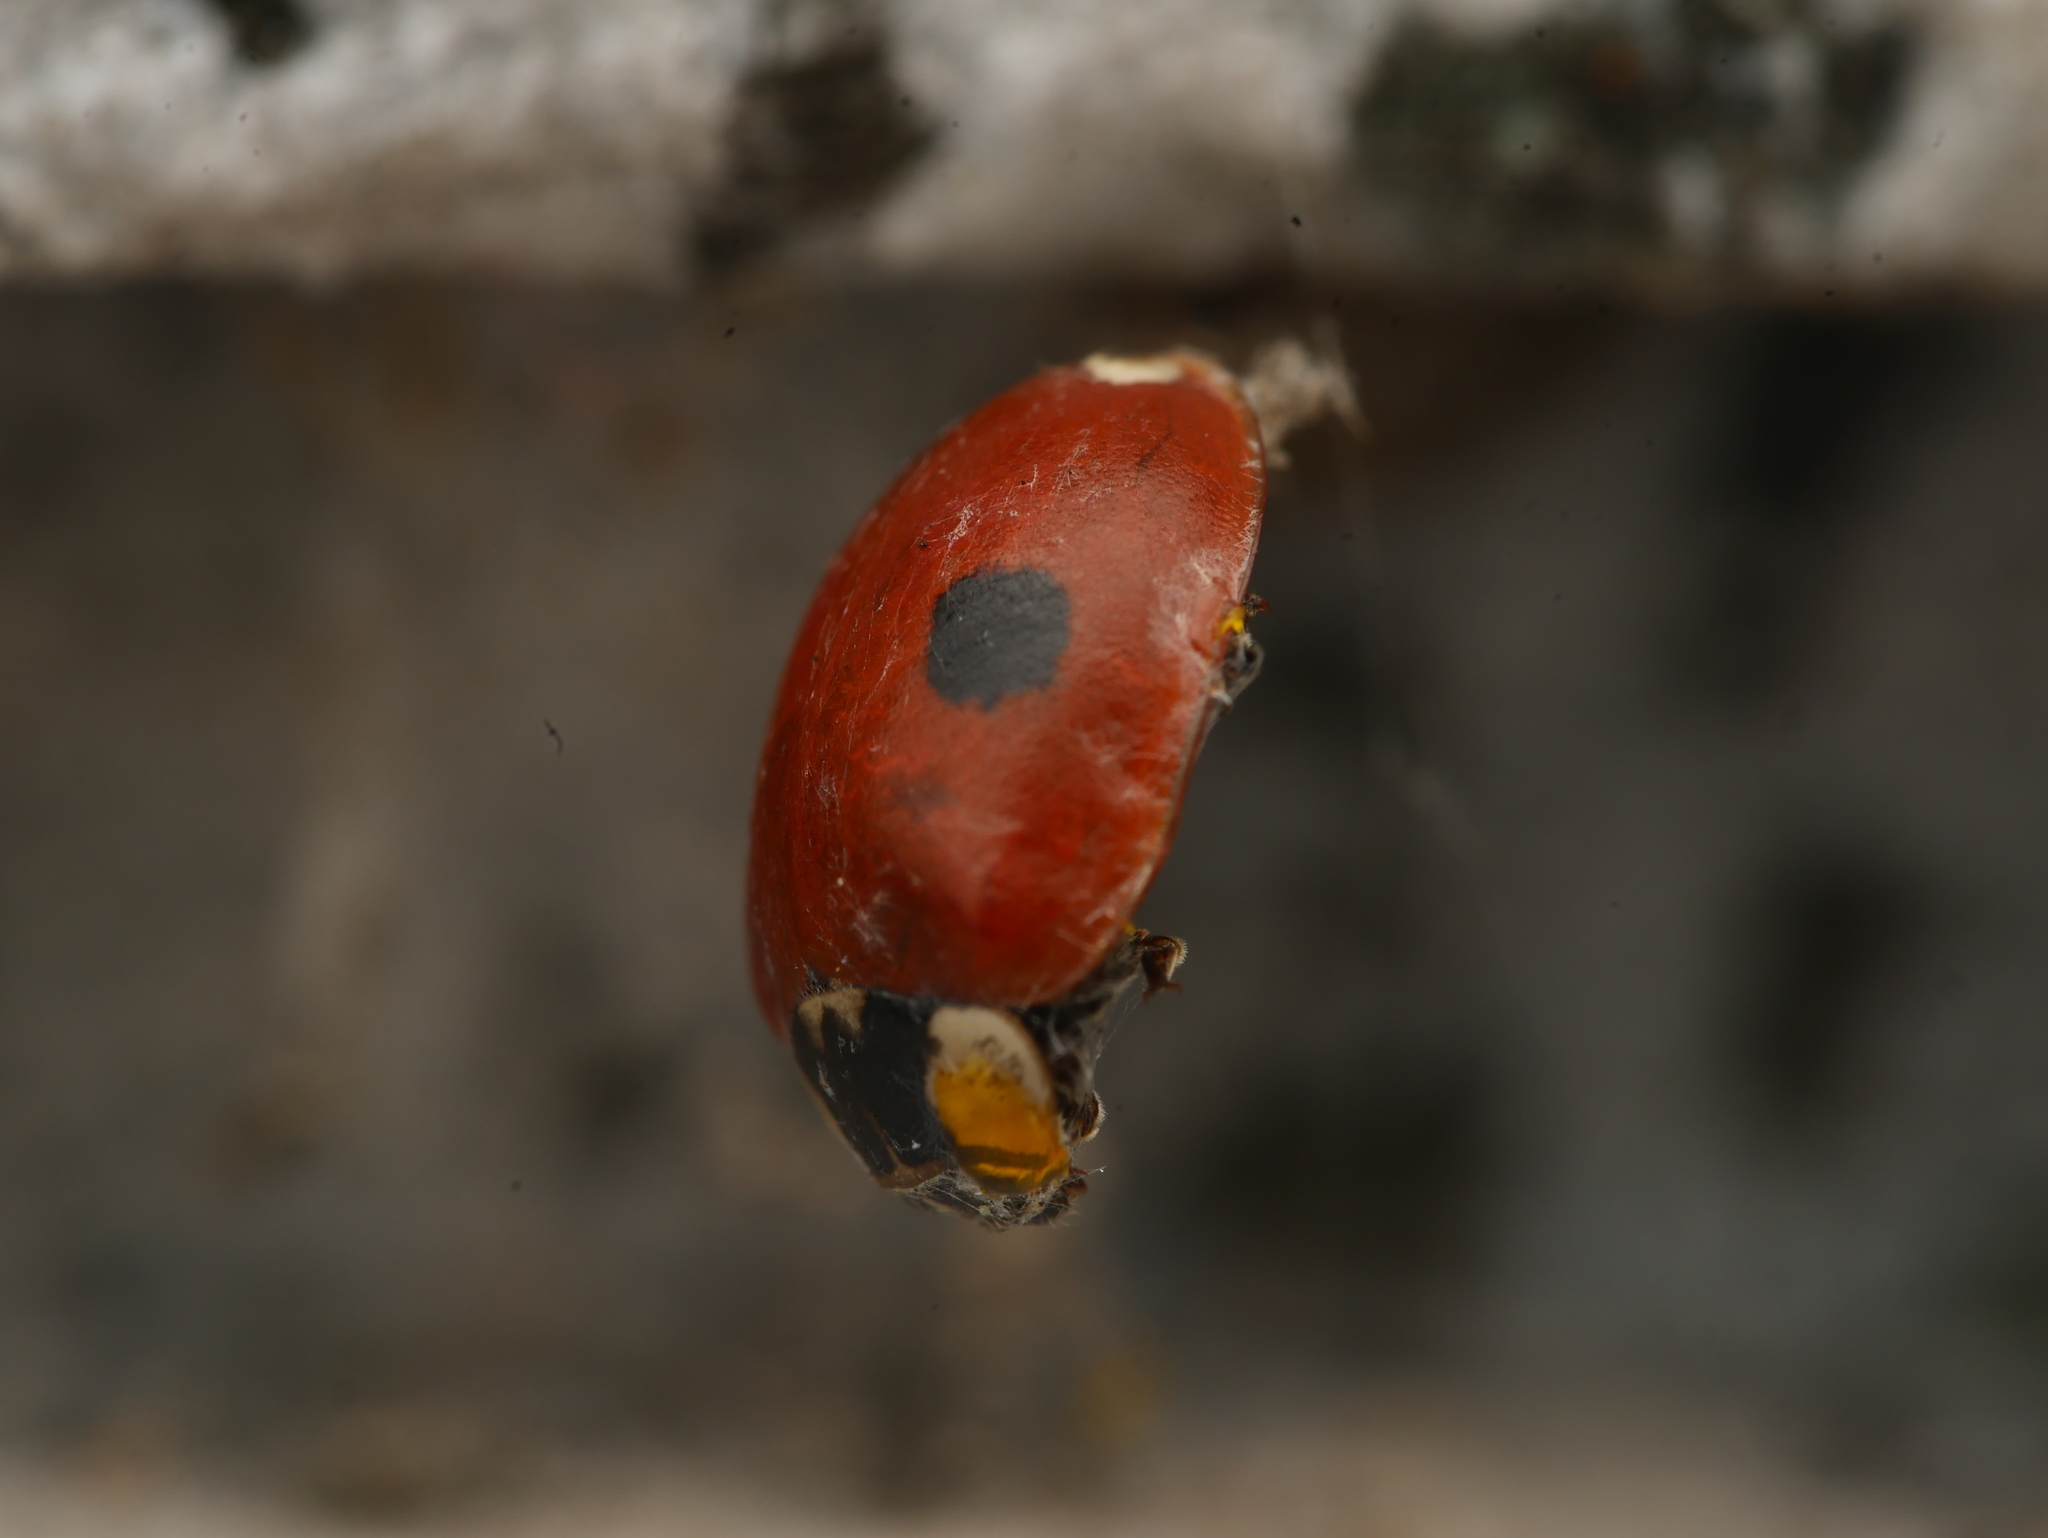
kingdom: Animalia
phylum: Arthropoda
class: Insecta
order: Coleoptera
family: Coccinellidae
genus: Adalia
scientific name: Adalia bipunctata
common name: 2-spot ladybird
